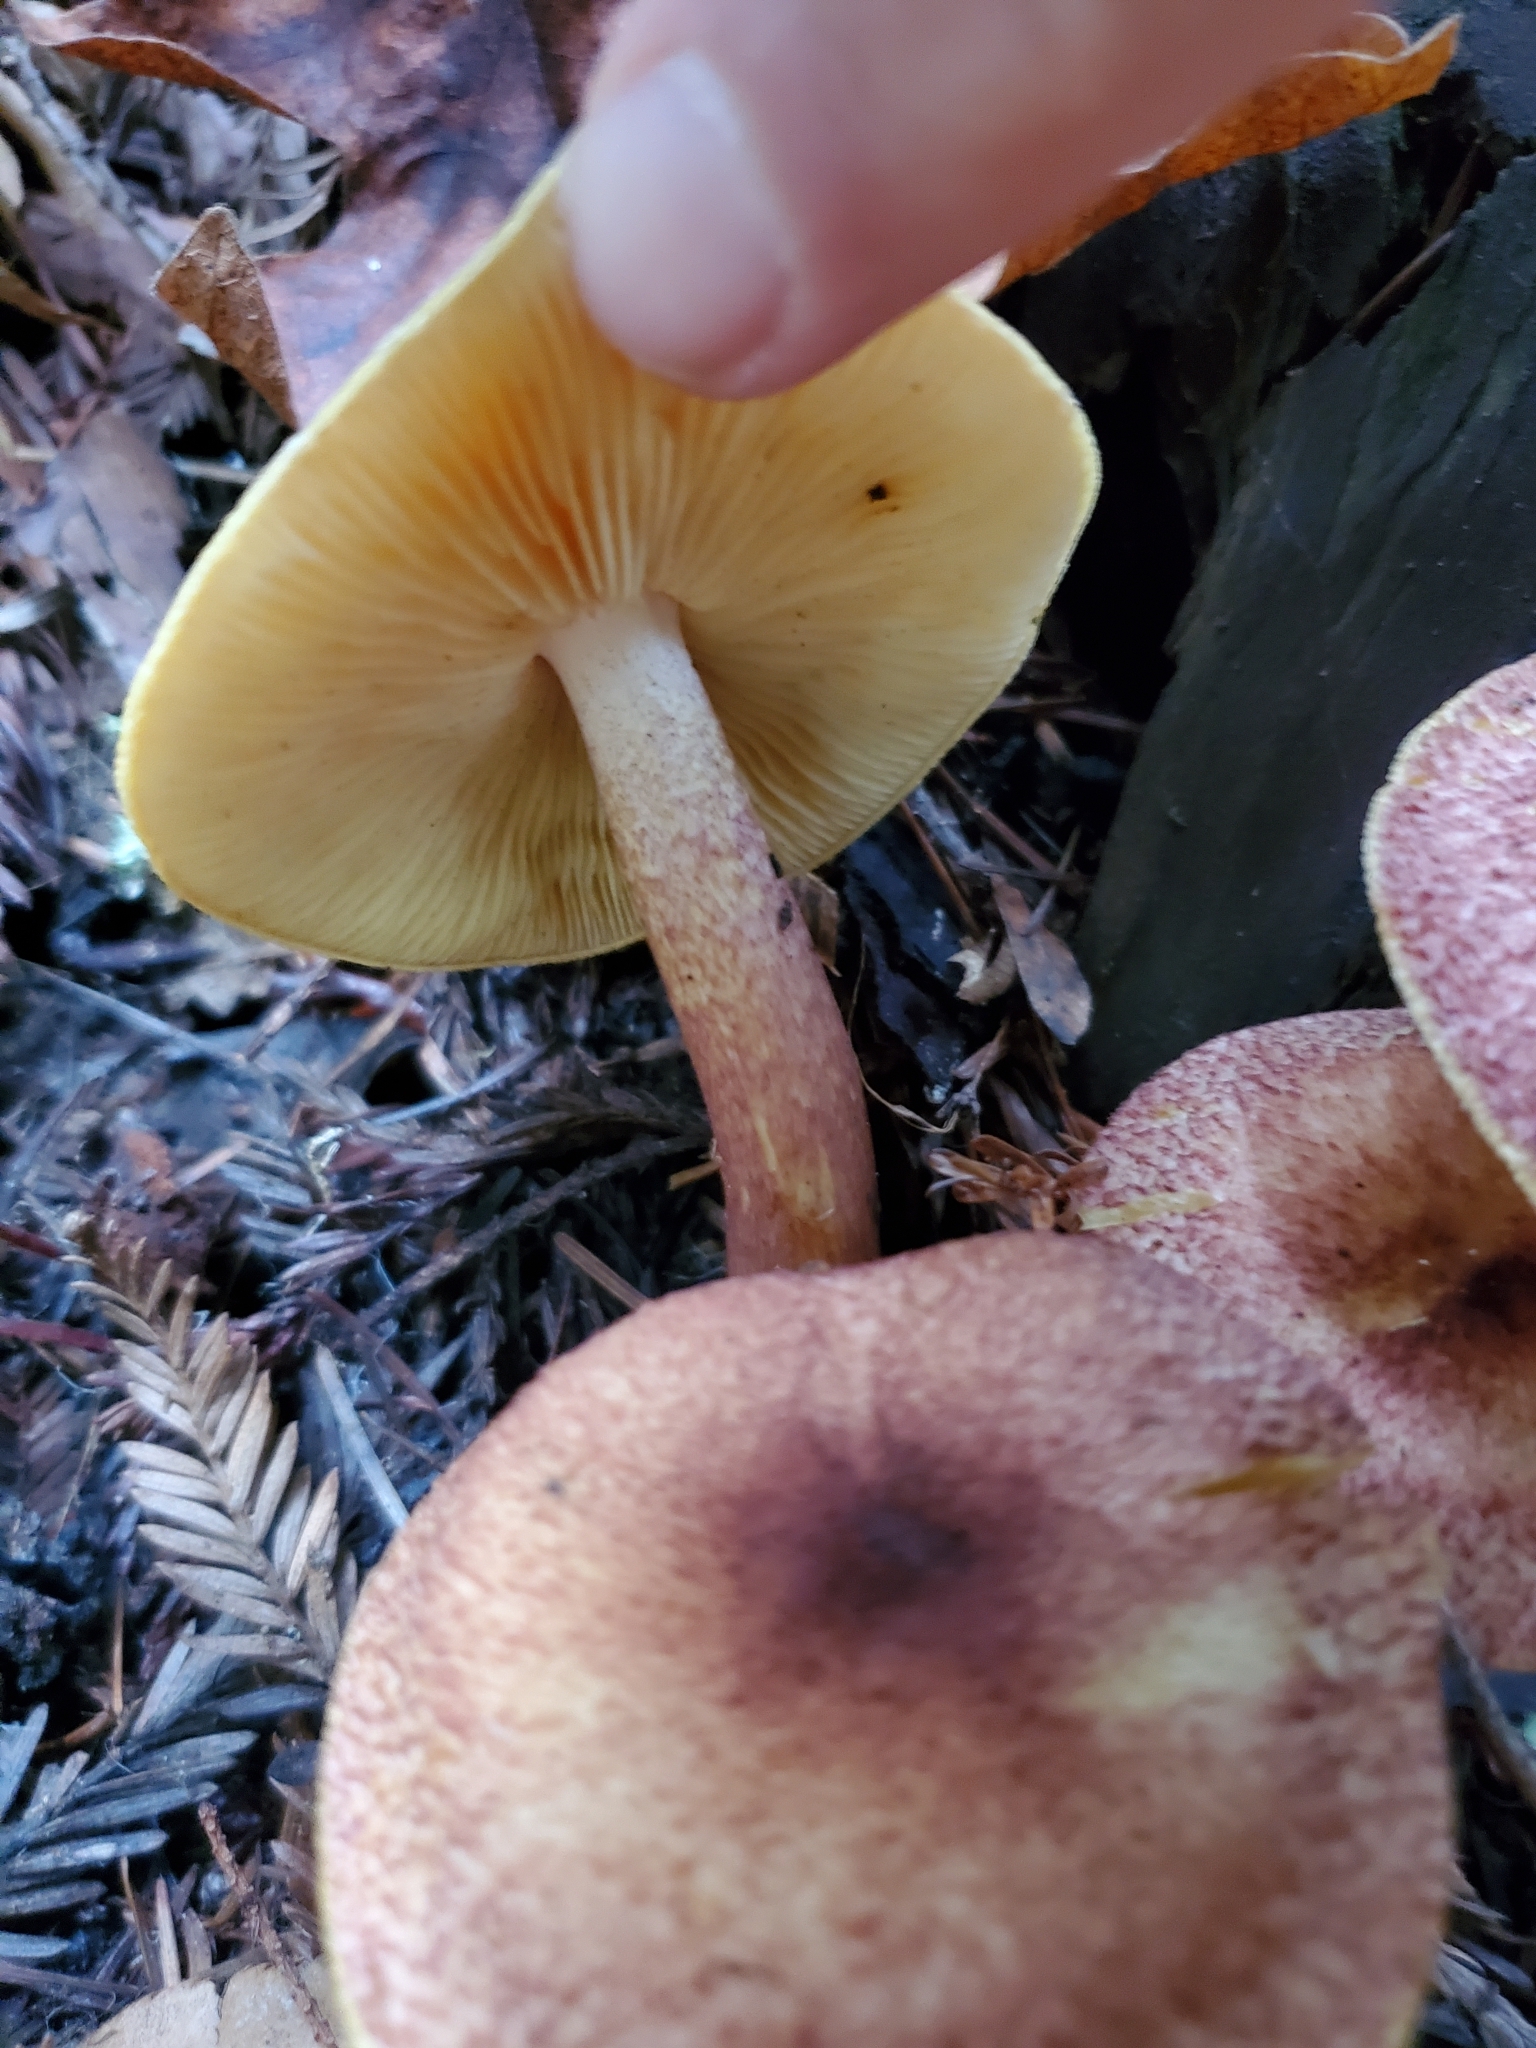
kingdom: Fungi
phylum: Basidiomycota
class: Agaricomycetes
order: Agaricales
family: Tricholomataceae
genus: Tricholomopsis
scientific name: Tricholomopsis rutilans
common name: Plums and custard
